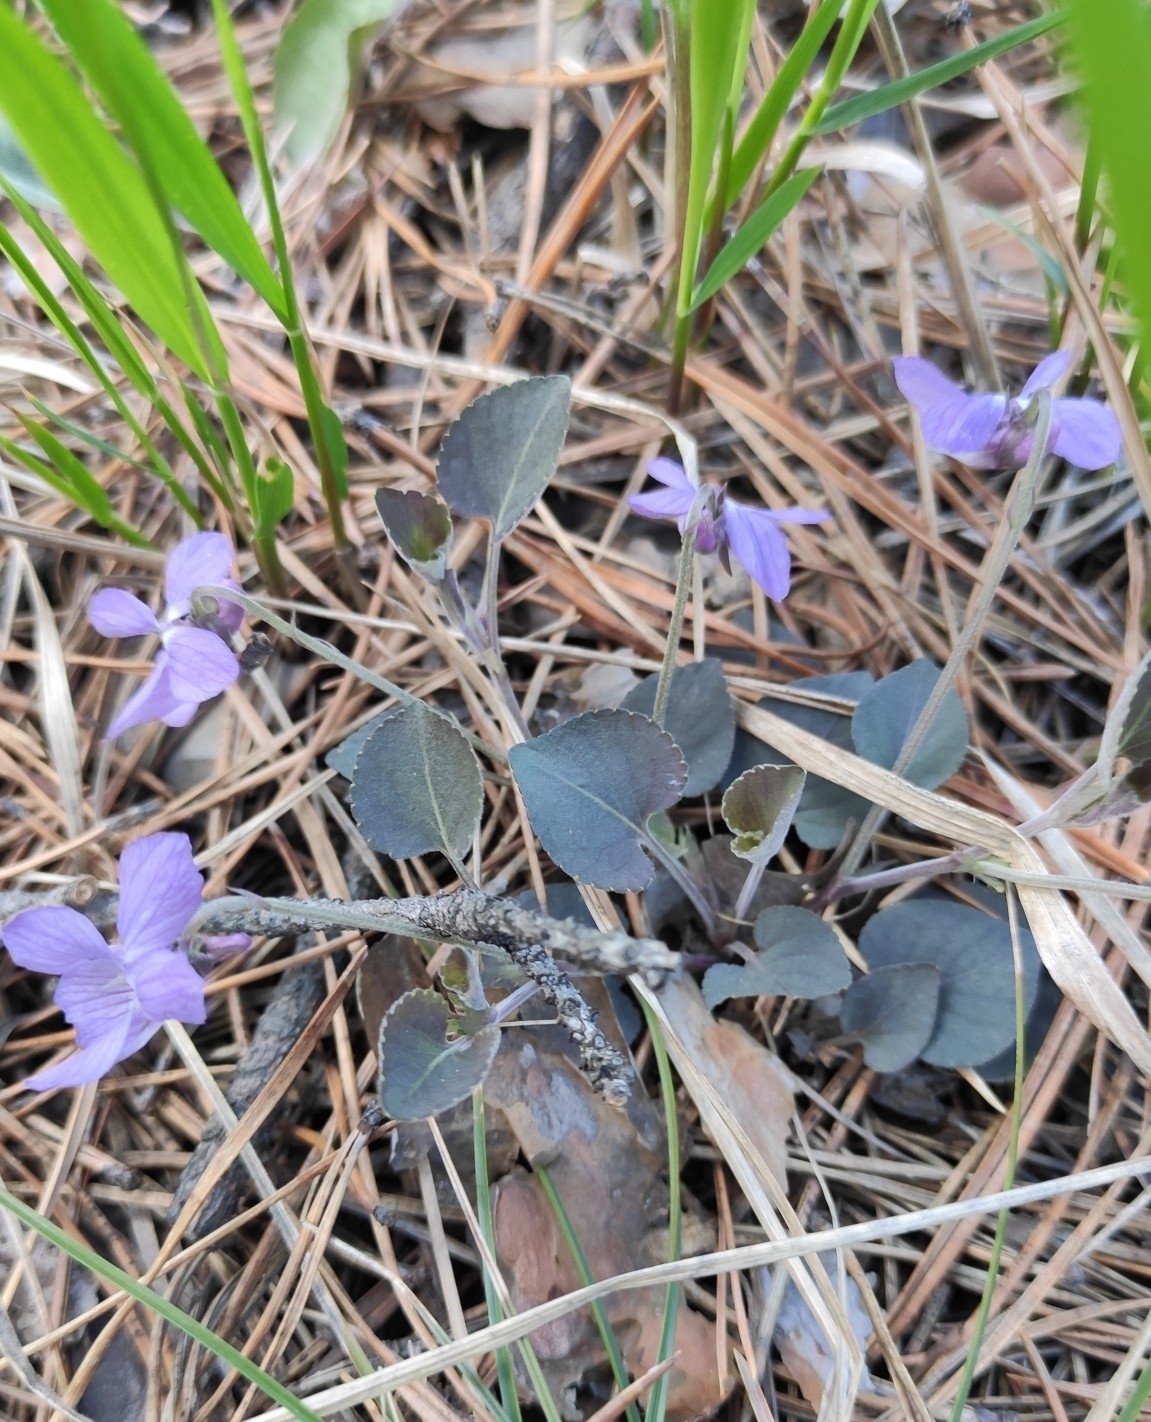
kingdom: Plantae
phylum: Tracheophyta
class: Magnoliopsida
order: Malpighiales
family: Violaceae
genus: Viola
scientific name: Viola rupestris
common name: Teesdale violet
